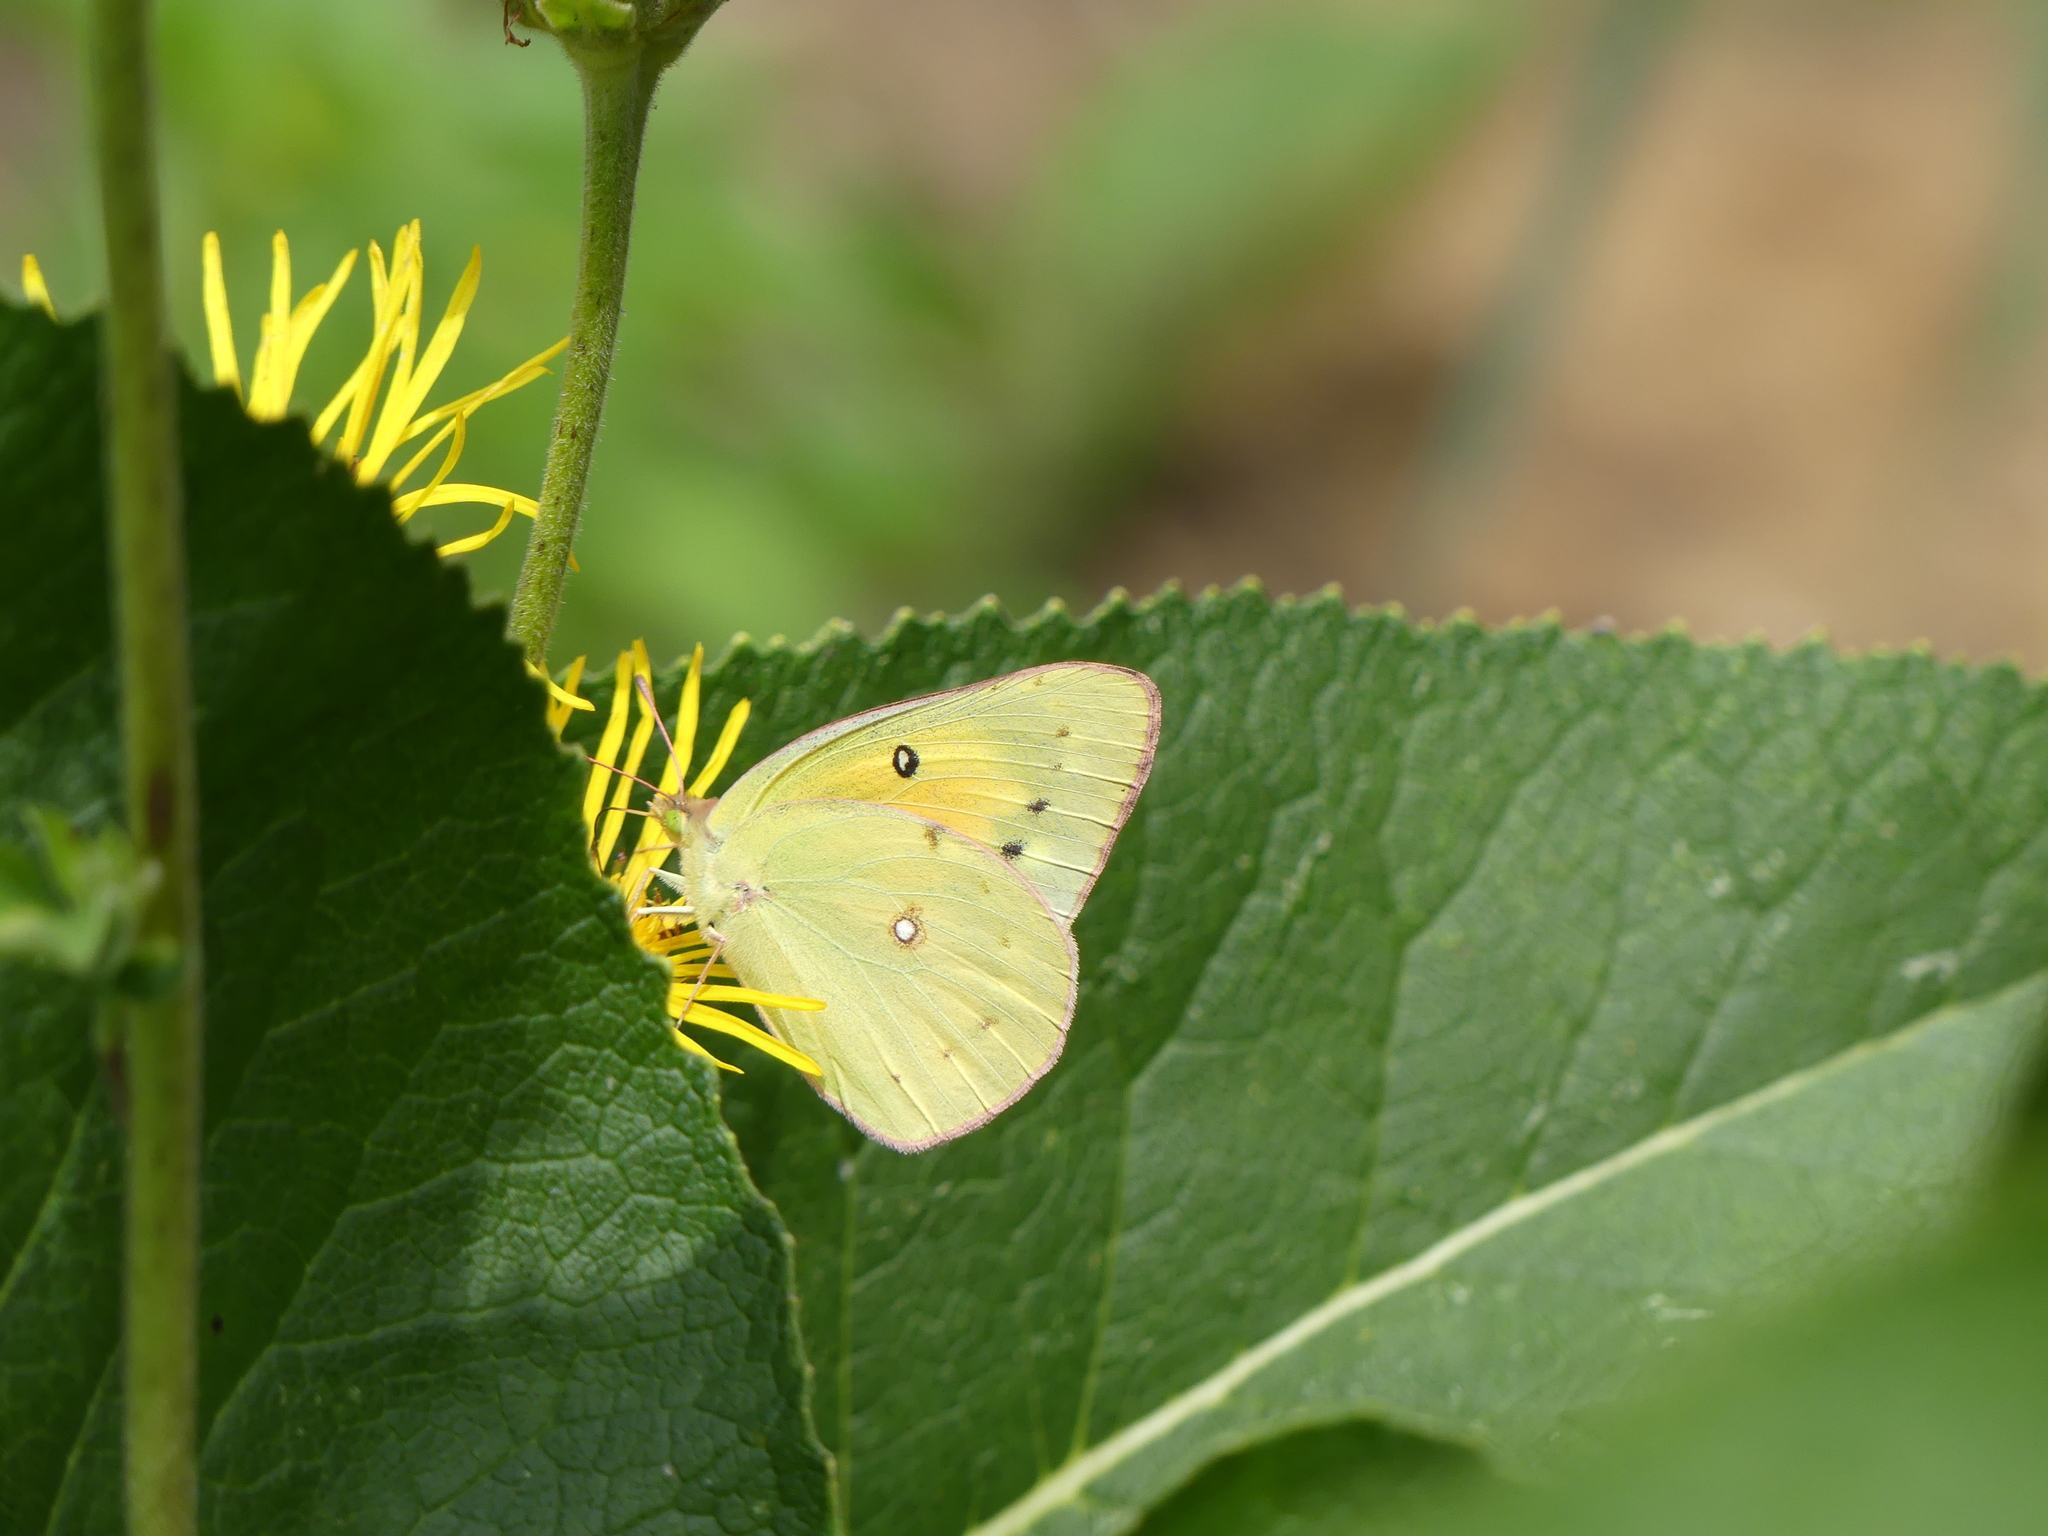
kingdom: Animalia
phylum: Arthropoda
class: Insecta
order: Lepidoptera
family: Pieridae
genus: Colias
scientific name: Colias eurytheme
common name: Alfalfa butterfly
